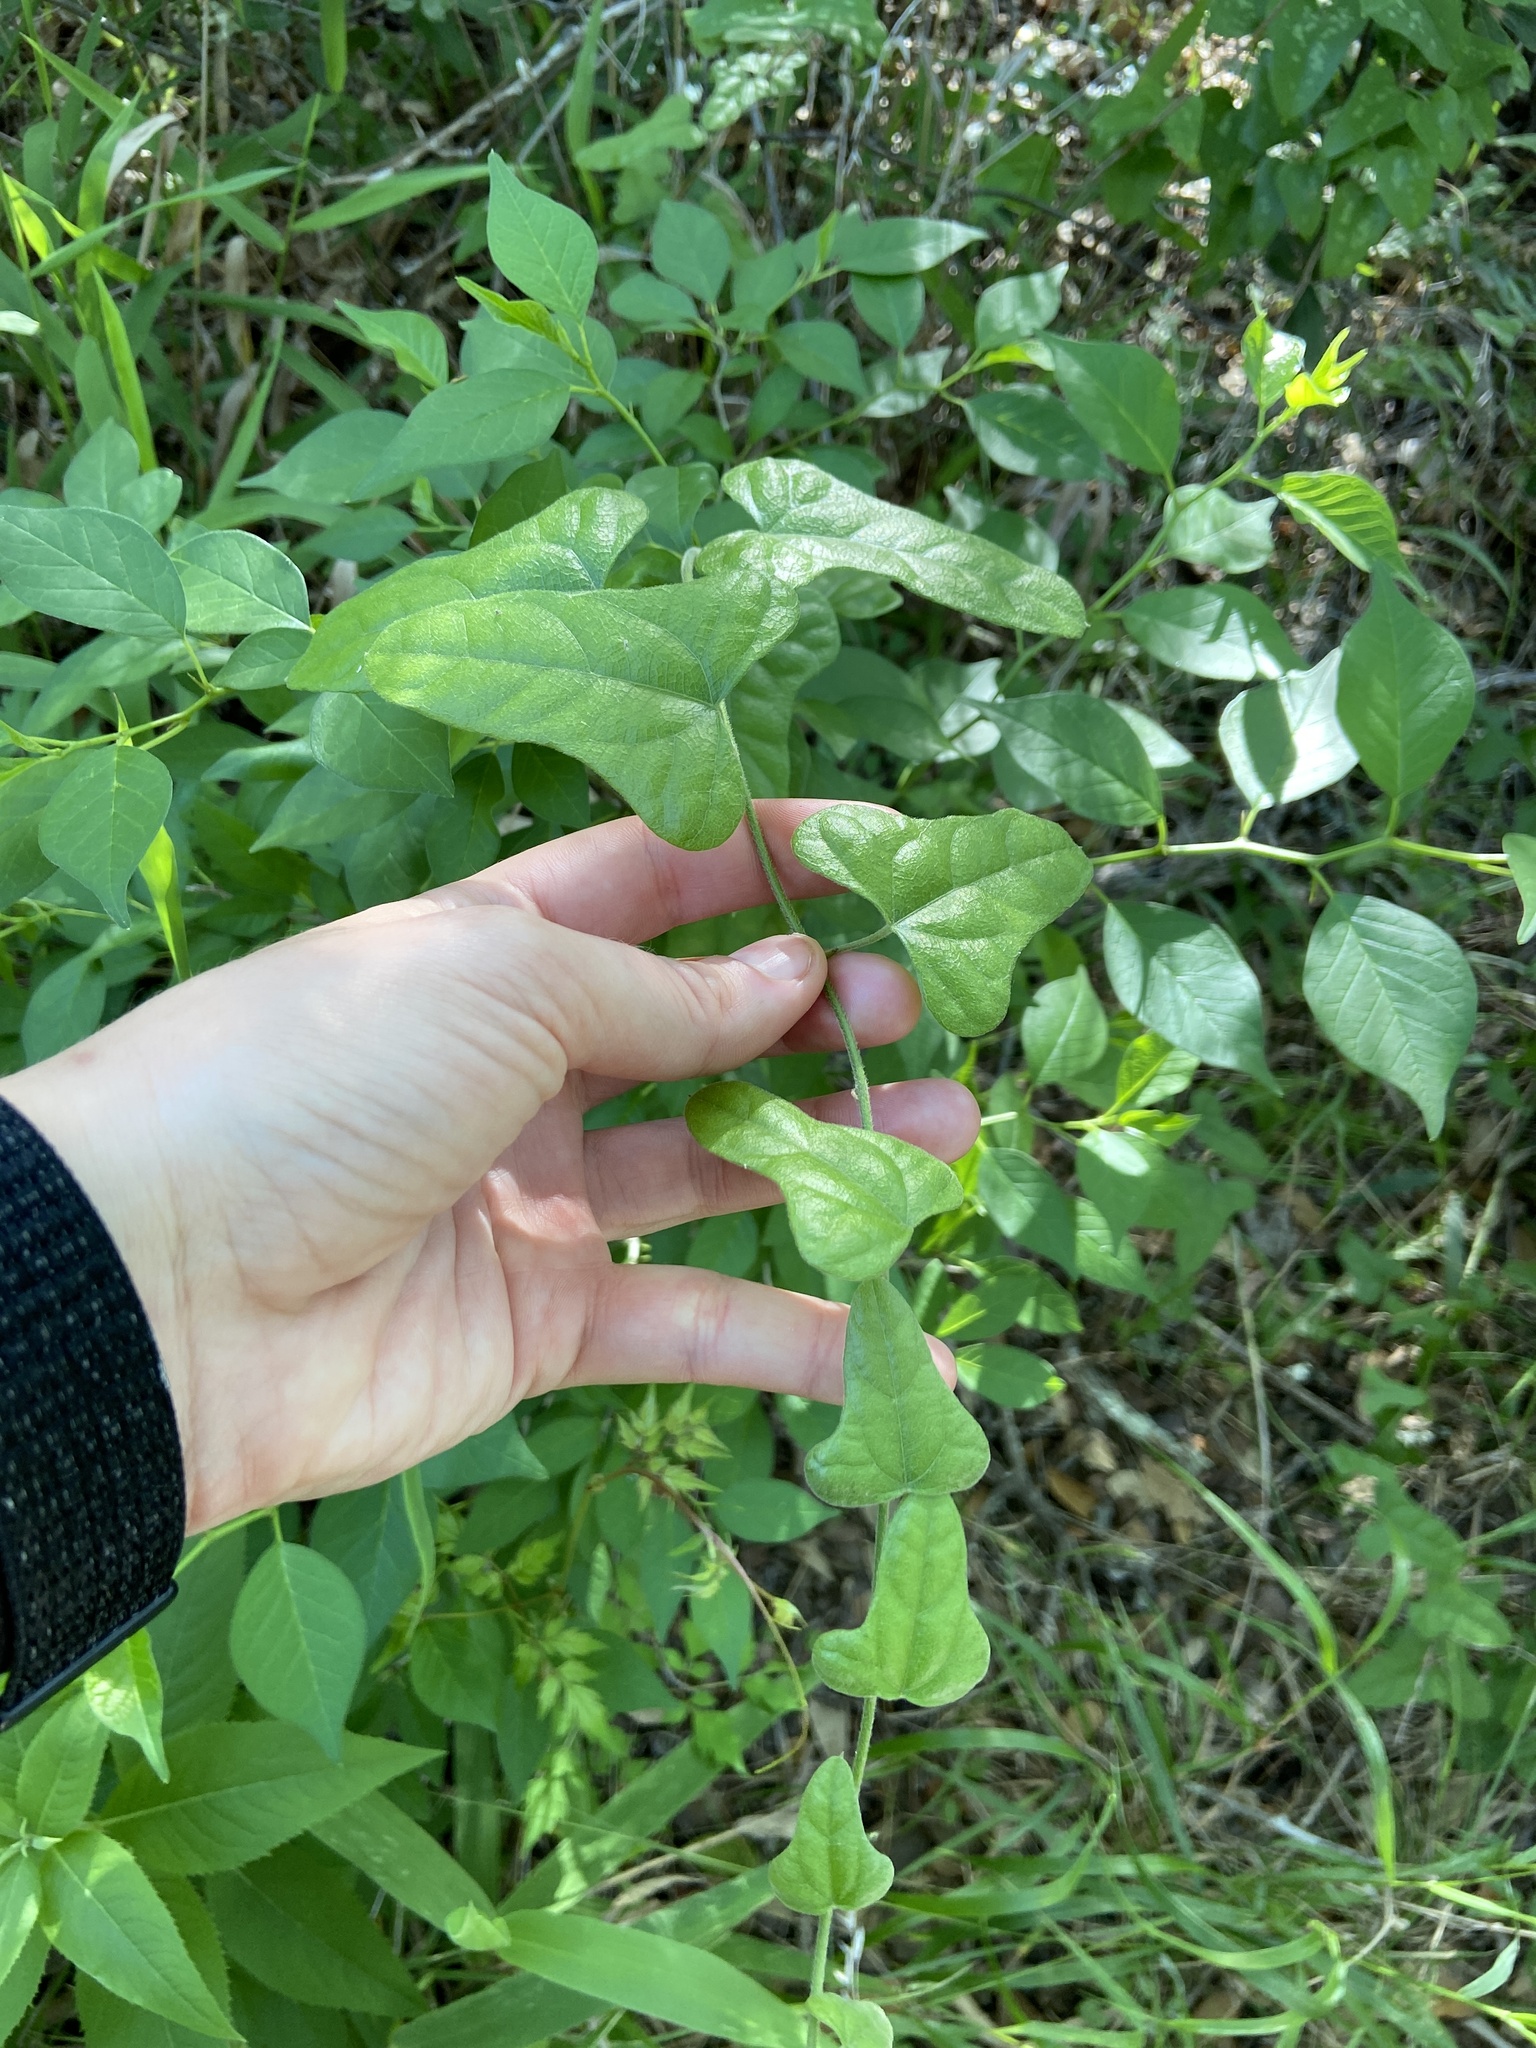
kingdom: Plantae
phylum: Tracheophyta
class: Magnoliopsida
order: Ranunculales
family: Menispermaceae
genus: Cocculus
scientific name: Cocculus carolinus
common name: Carolina moonseed
